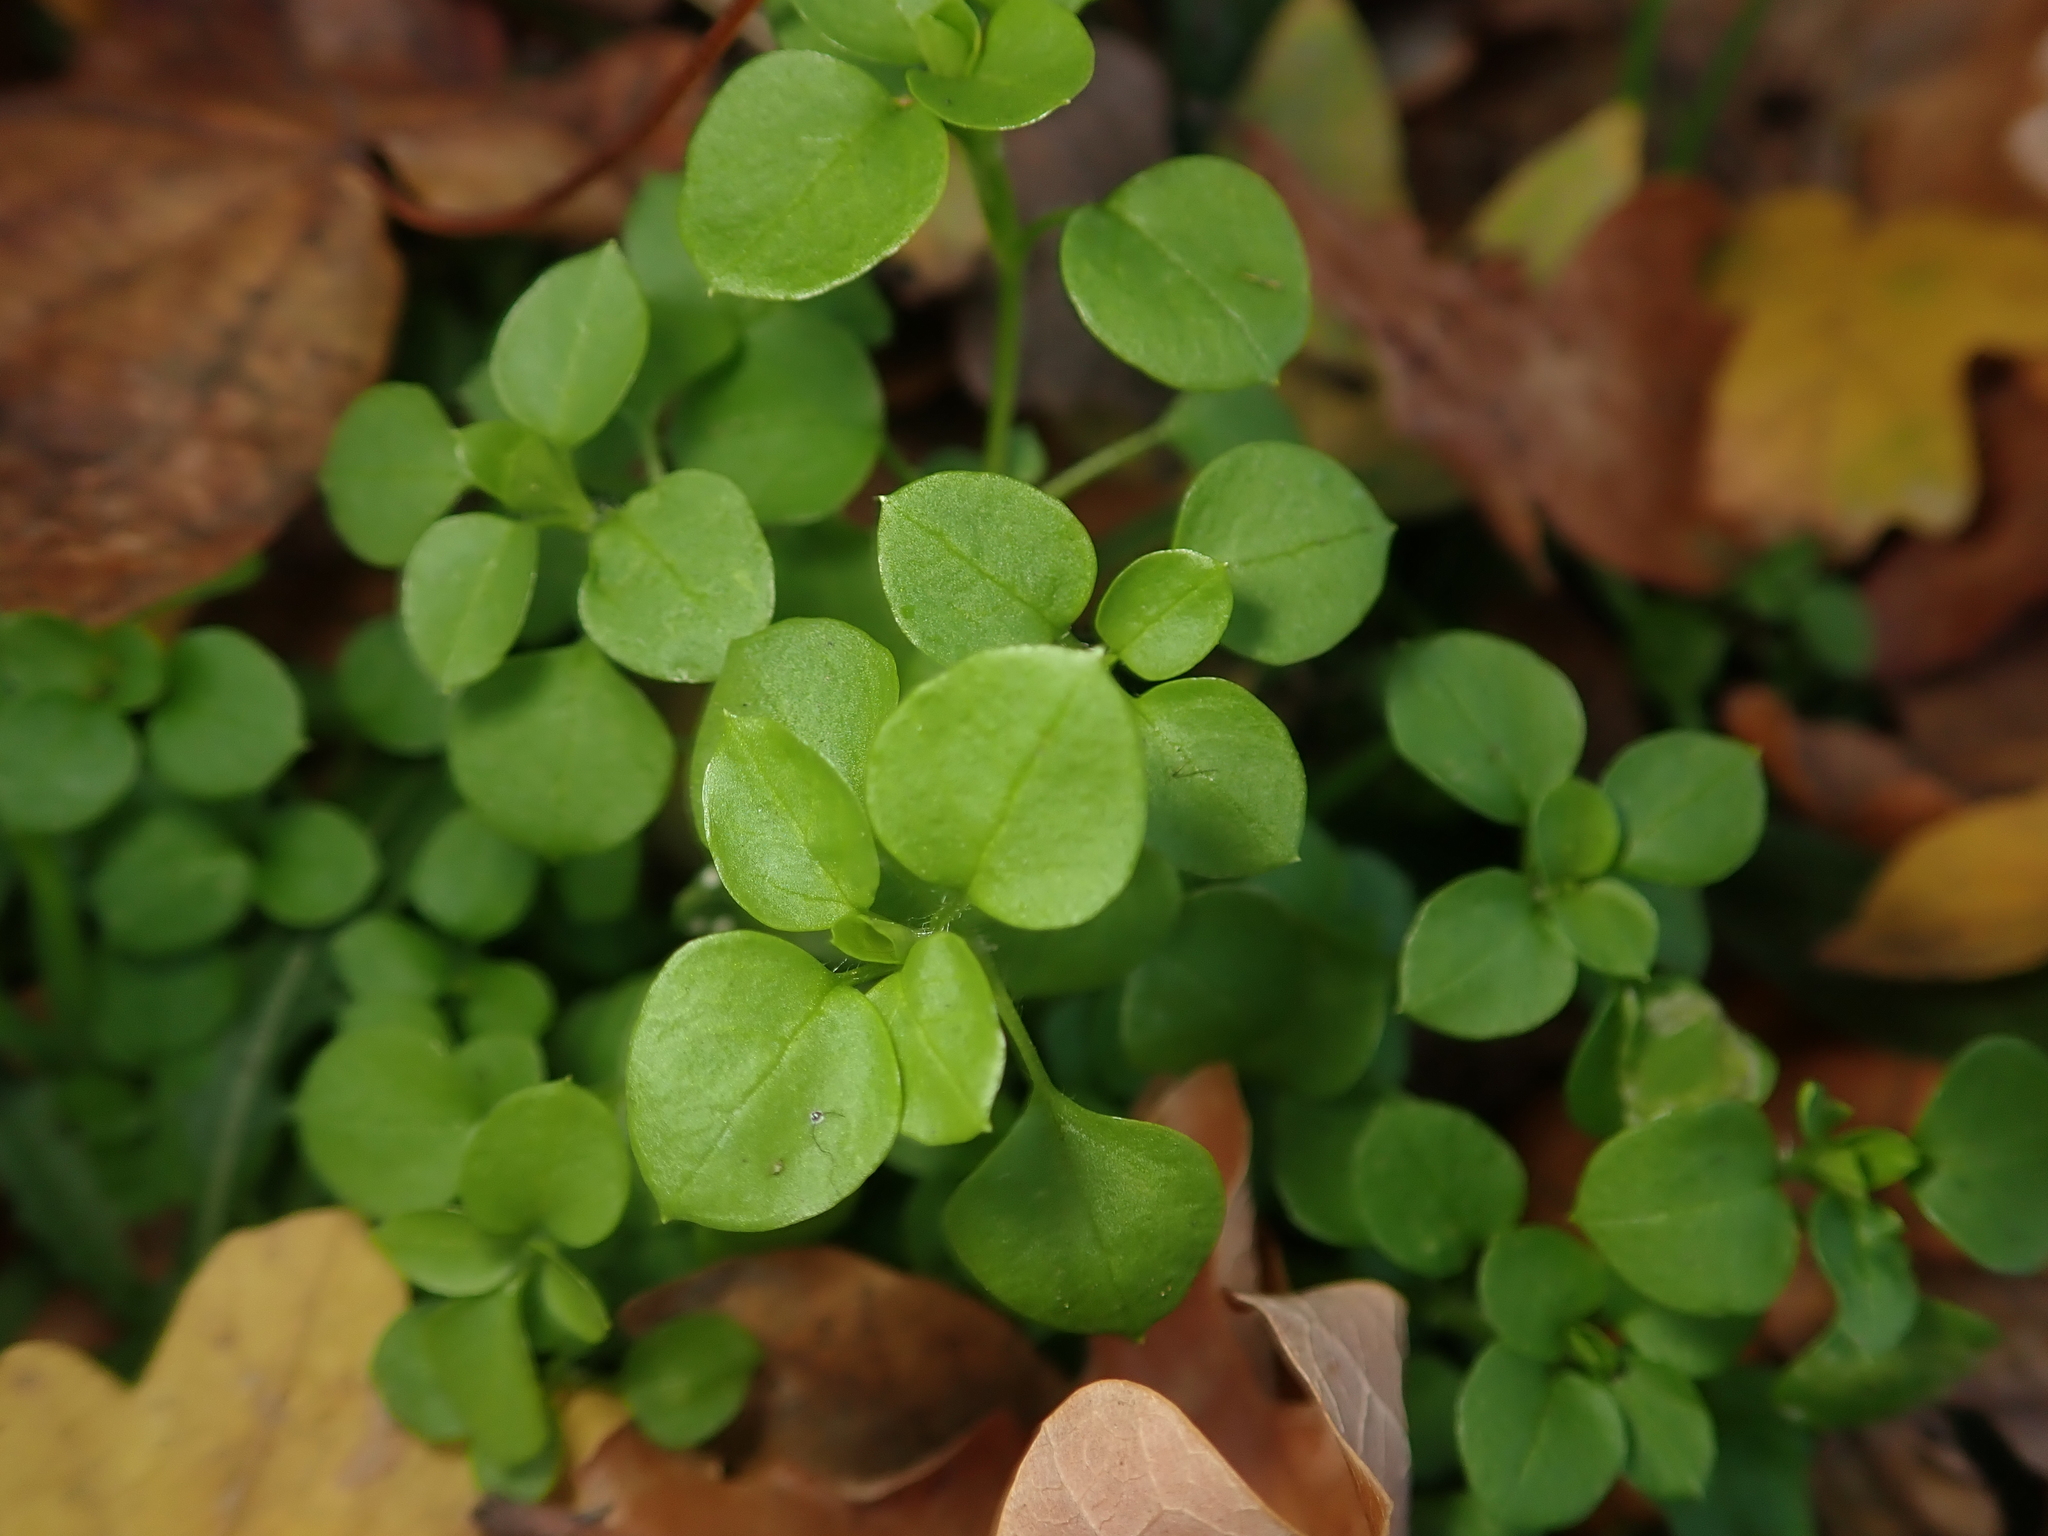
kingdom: Plantae
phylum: Tracheophyta
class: Magnoliopsida
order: Caryophyllales
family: Caryophyllaceae
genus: Stellaria
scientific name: Stellaria media
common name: Common chickweed
